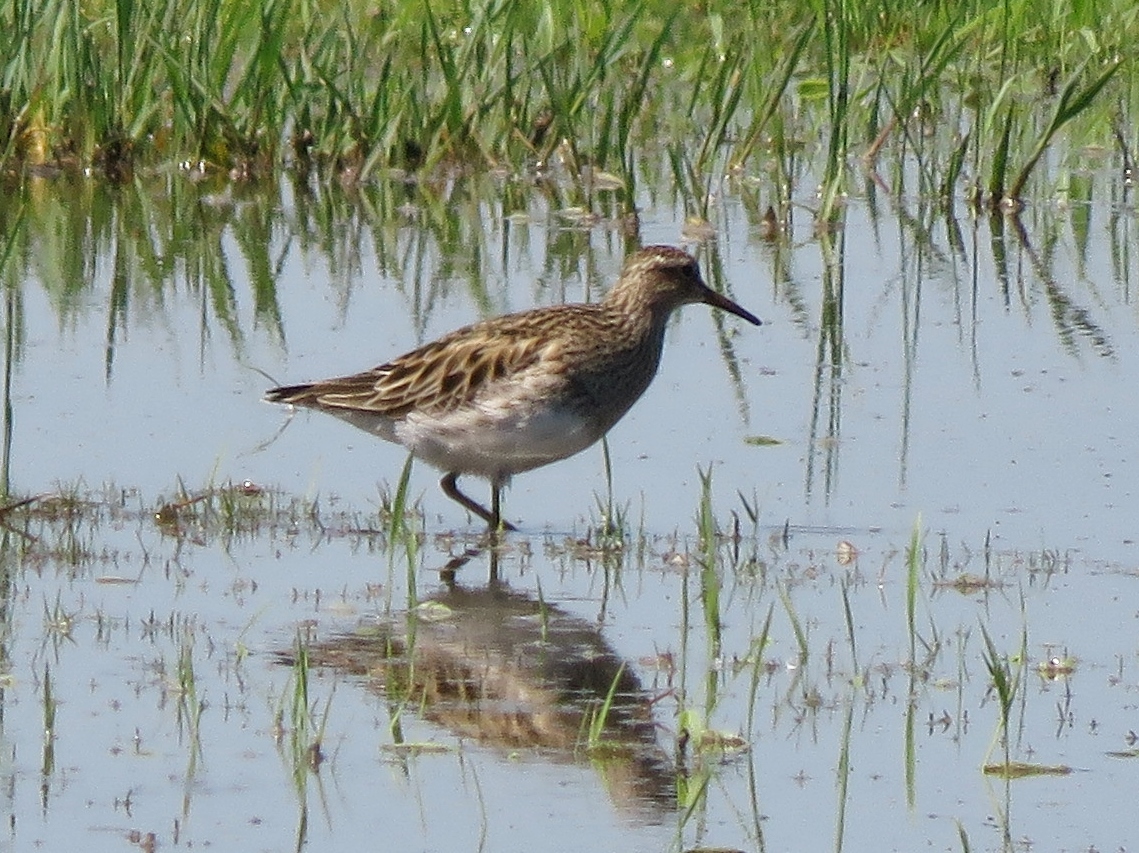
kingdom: Animalia
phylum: Chordata
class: Aves
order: Charadriiformes
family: Scolopacidae
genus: Calidris
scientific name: Calidris melanotos
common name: Pectoral sandpiper
